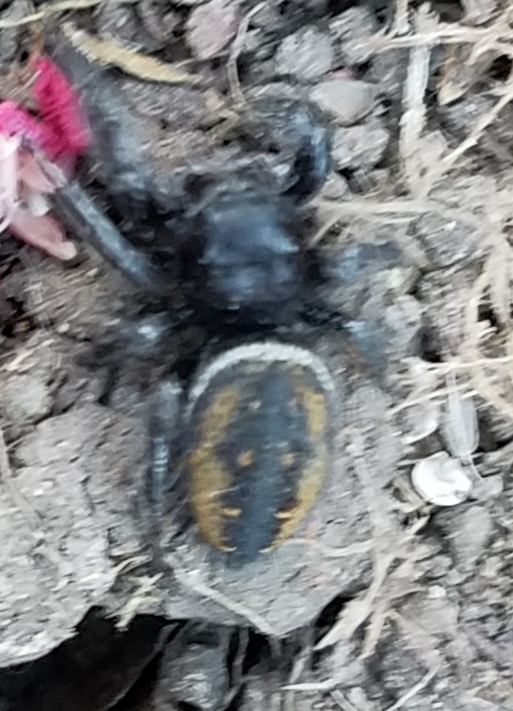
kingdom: Animalia
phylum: Arthropoda
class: Arachnida
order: Araneae
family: Salticidae
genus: Phidippus
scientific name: Phidippus johnsoni
